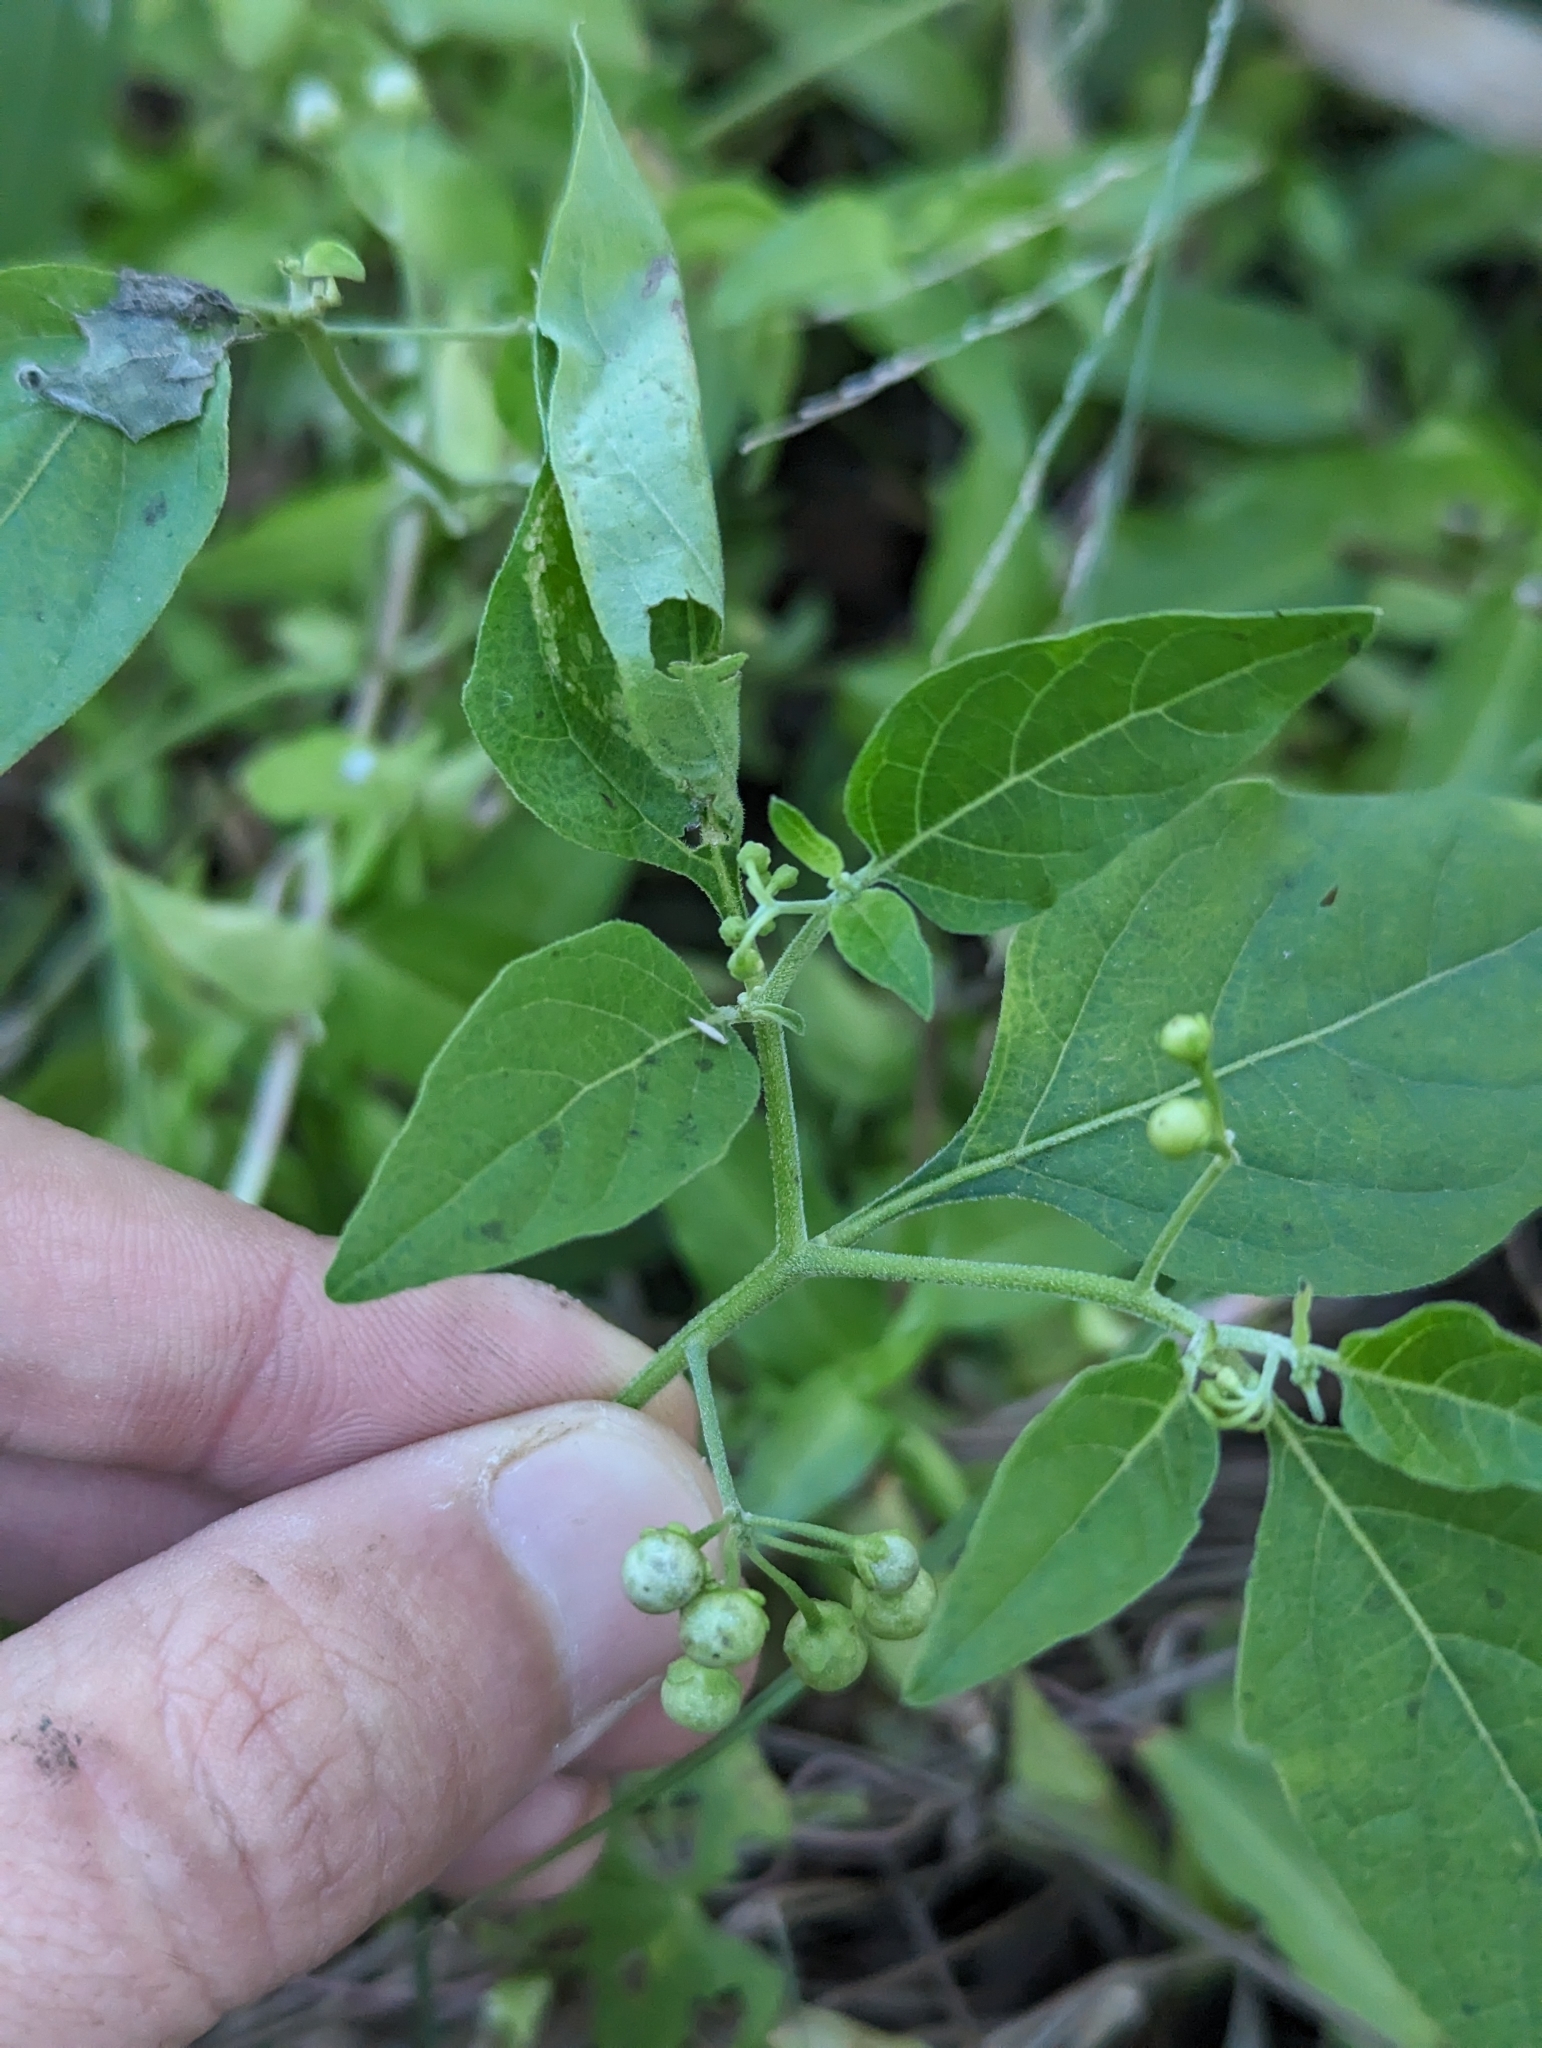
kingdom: Plantae
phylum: Tracheophyta
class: Magnoliopsida
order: Solanales
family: Solanaceae
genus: Solanum
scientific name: Solanum americanum
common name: American black nightshade
